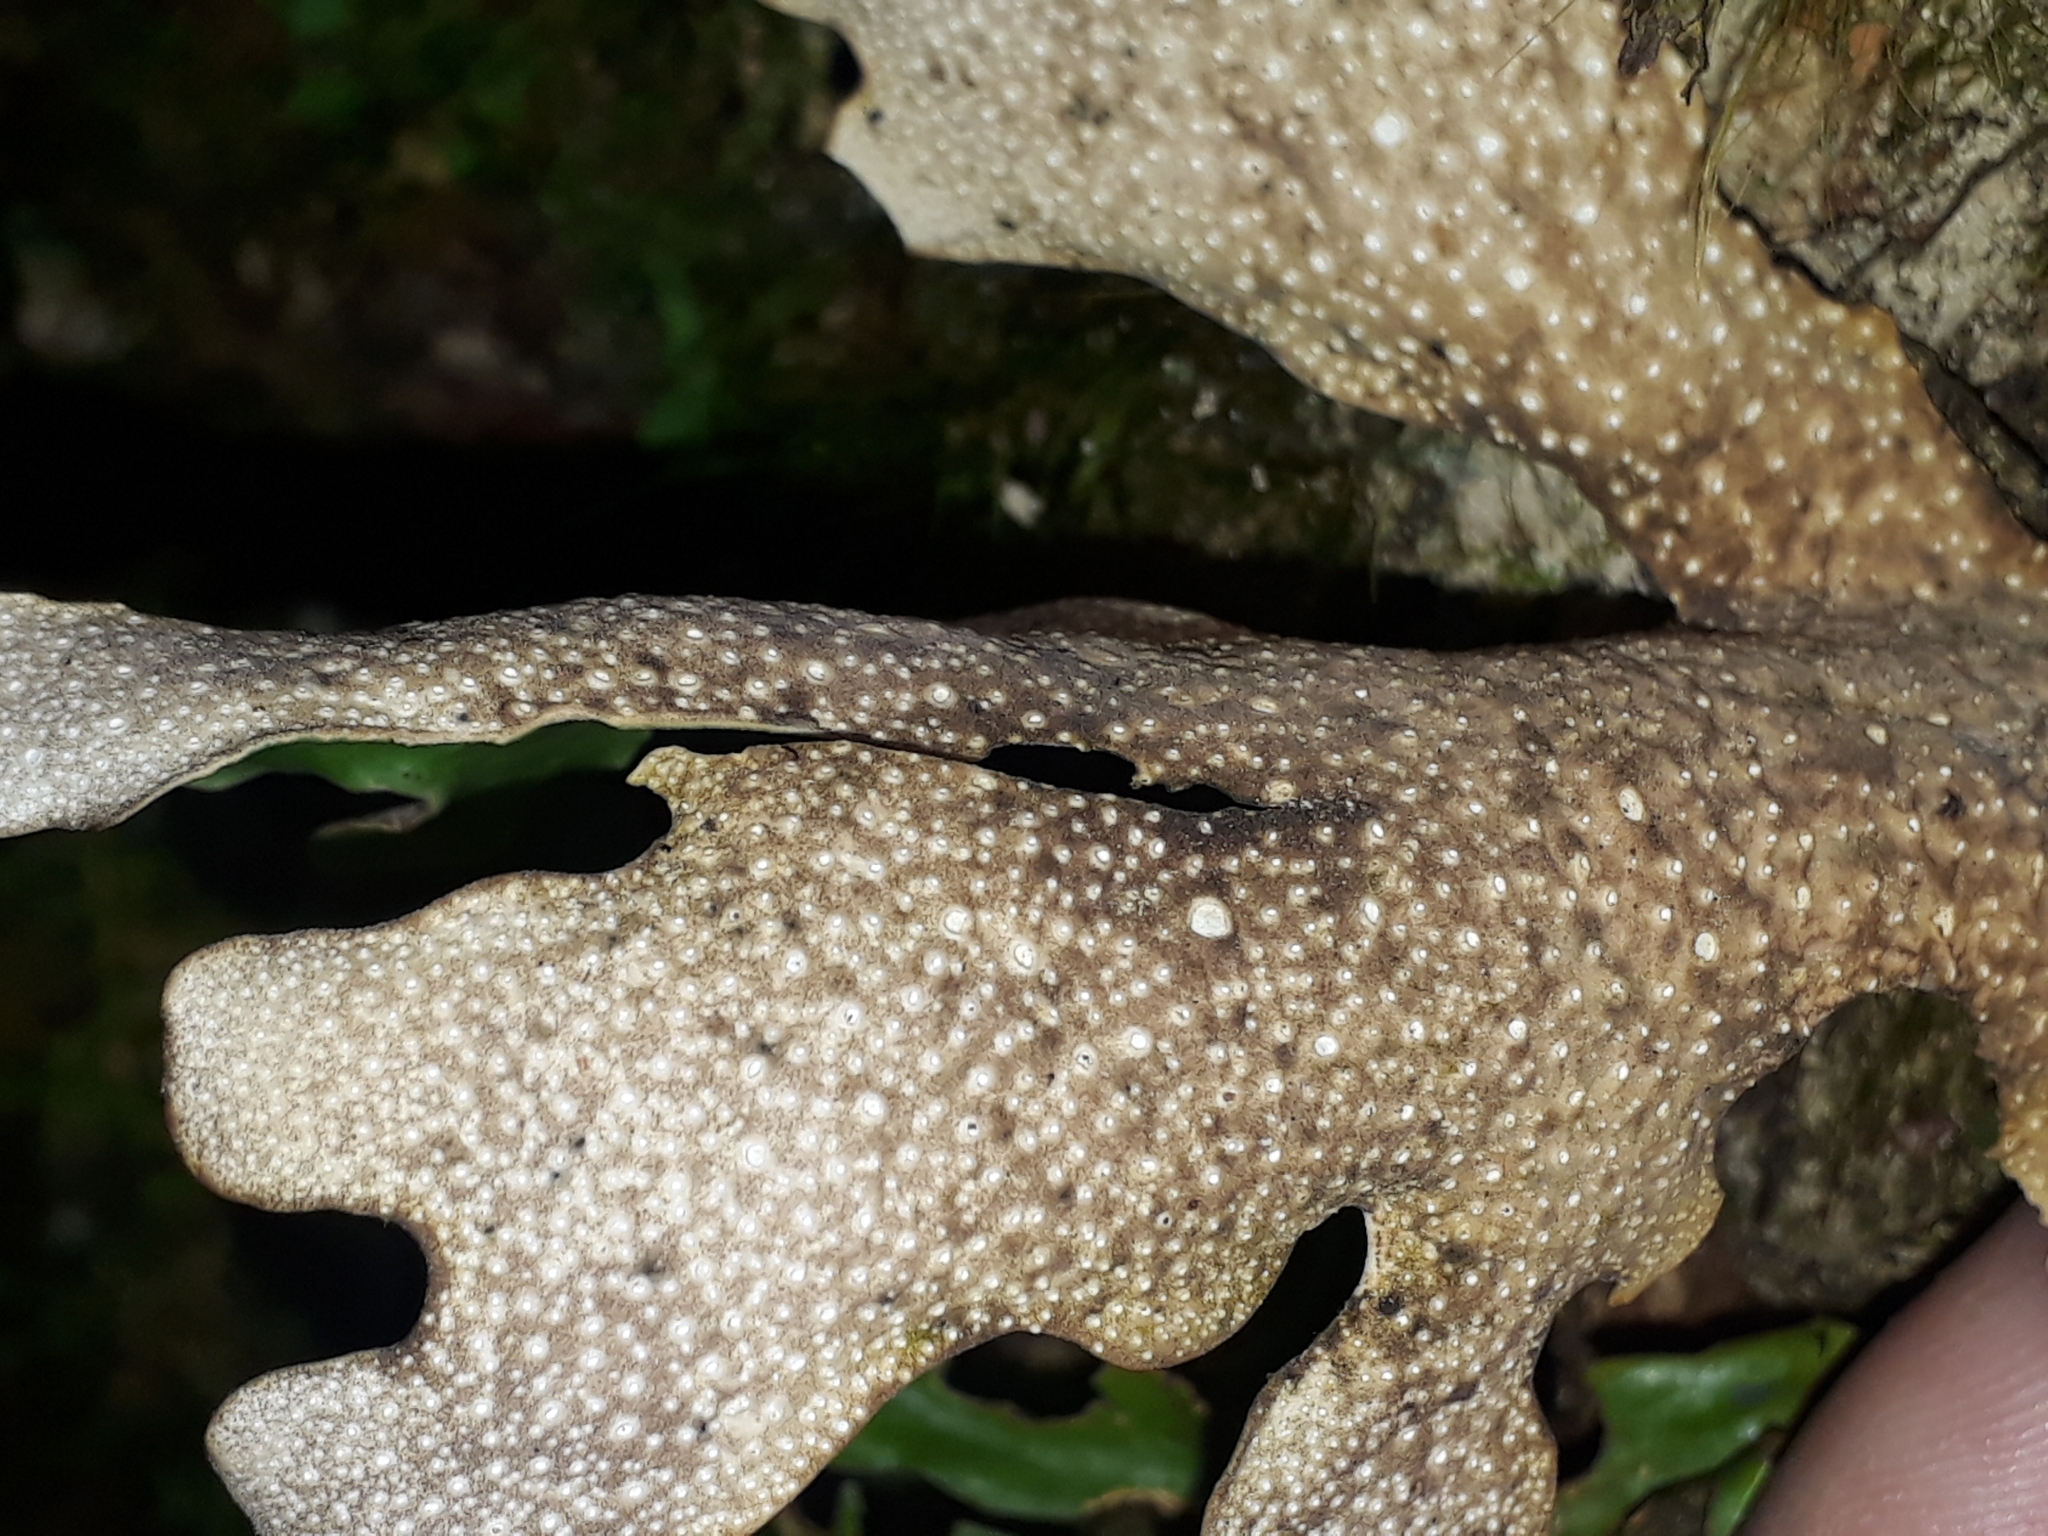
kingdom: Fungi
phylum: Ascomycota
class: Lecanoromycetes
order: Peltigerales
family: Lobariaceae
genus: Sticta
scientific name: Sticta latifrons
